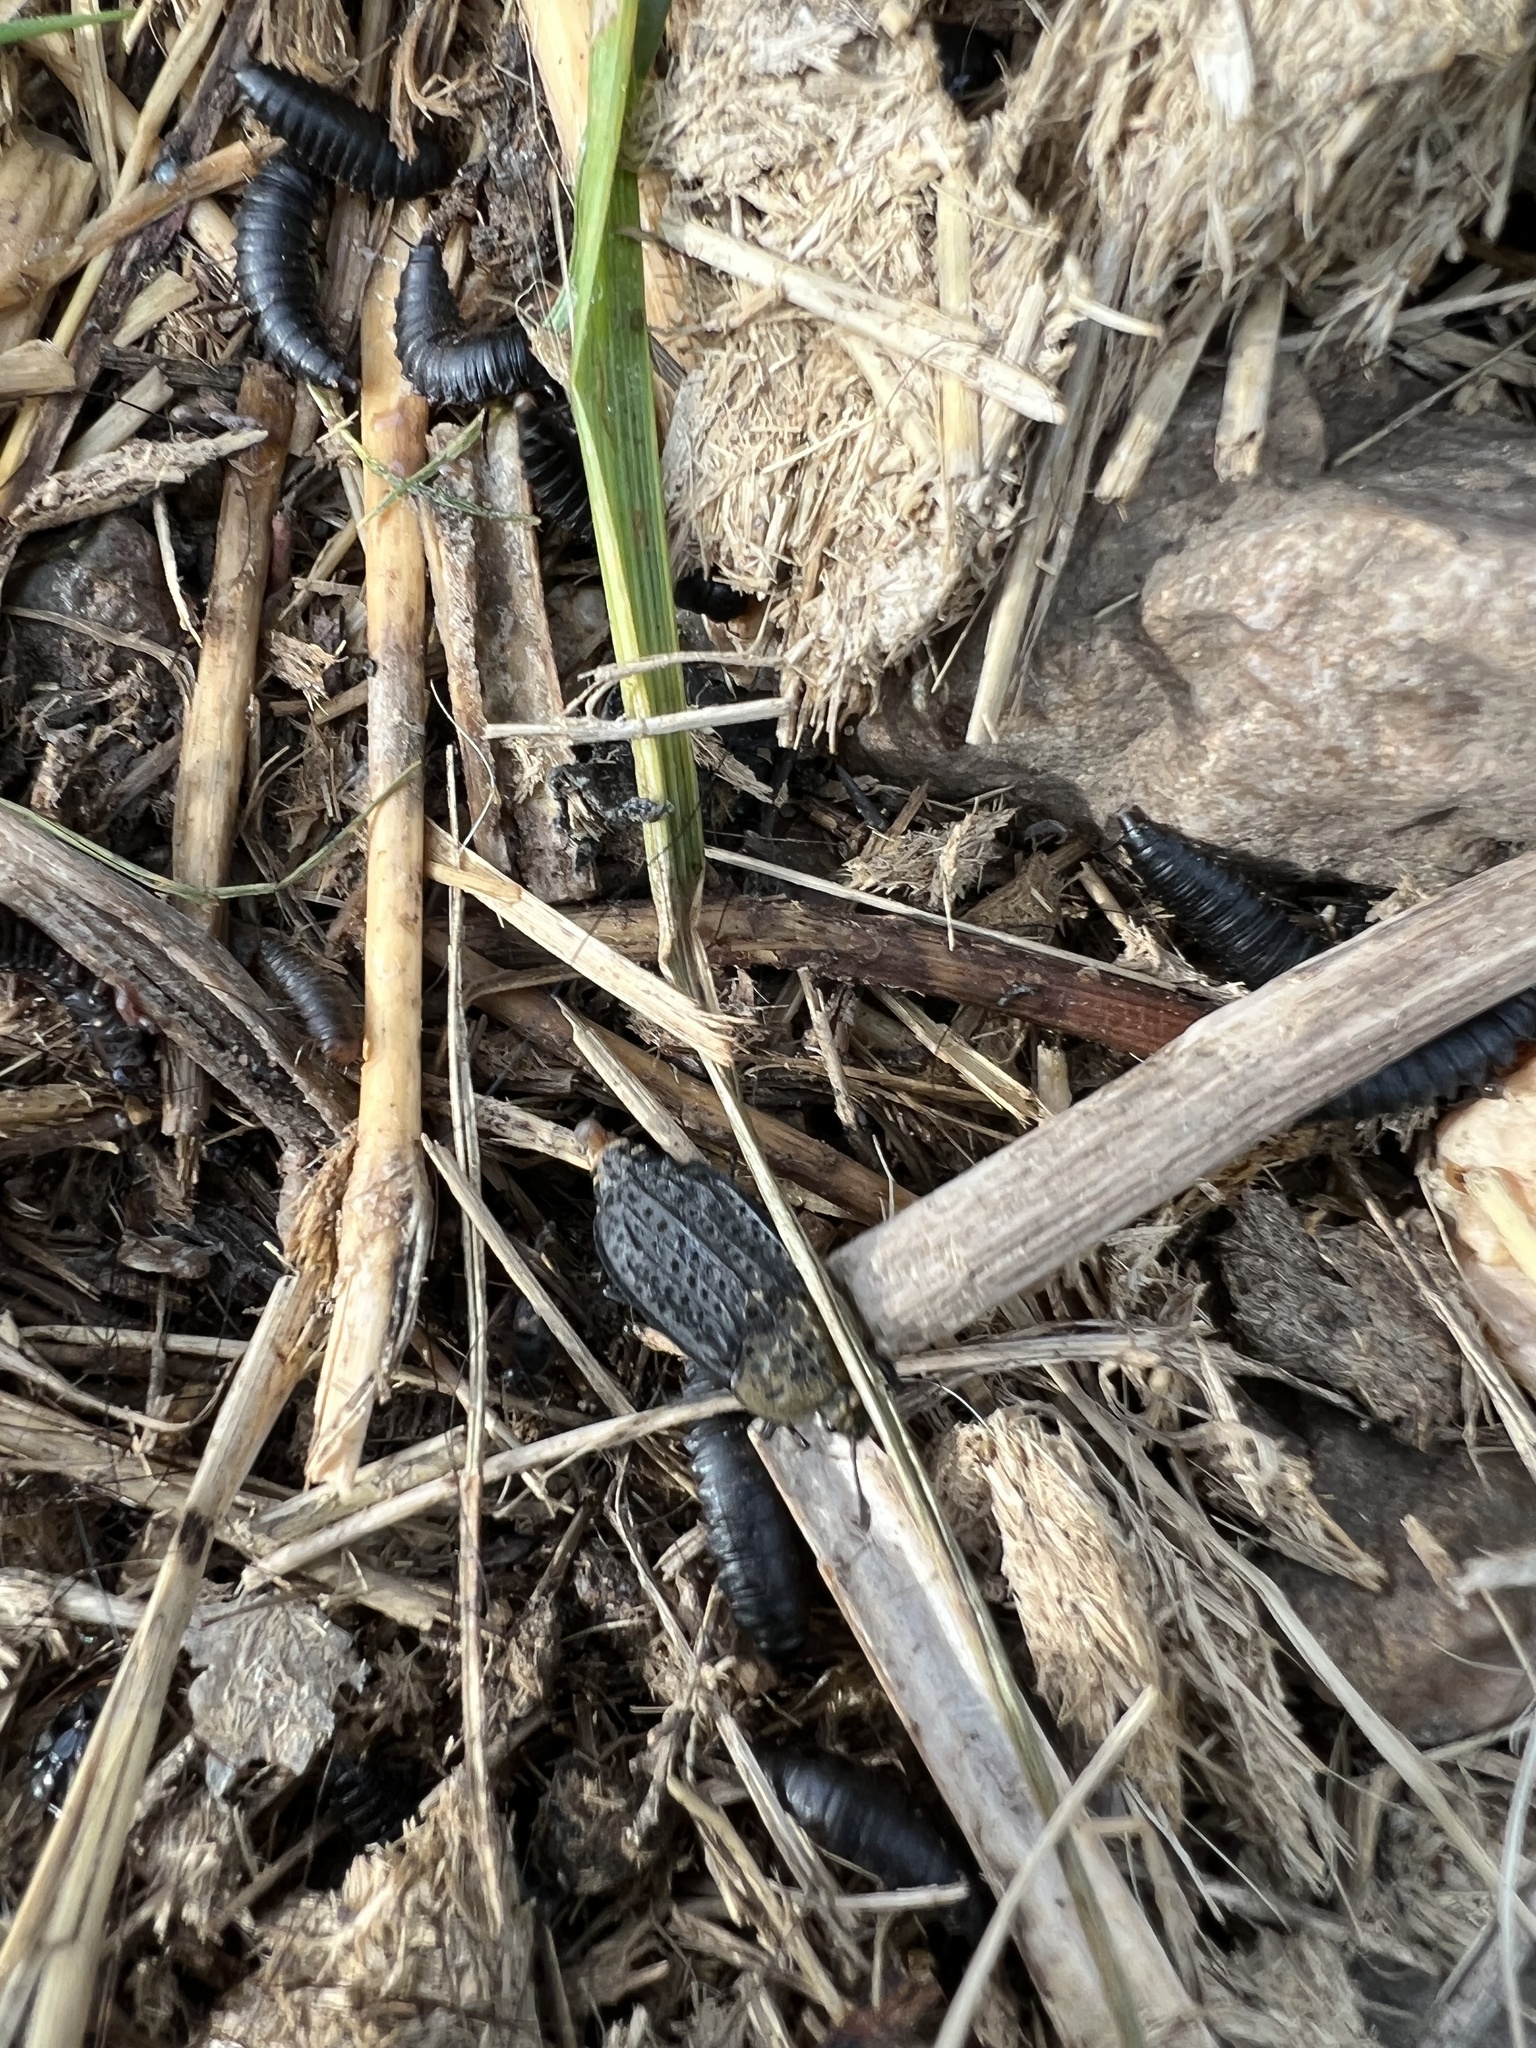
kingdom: Animalia
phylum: Arthropoda
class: Insecta
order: Coleoptera
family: Staphylinidae
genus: Thanatophilus
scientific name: Thanatophilus lapponicus
